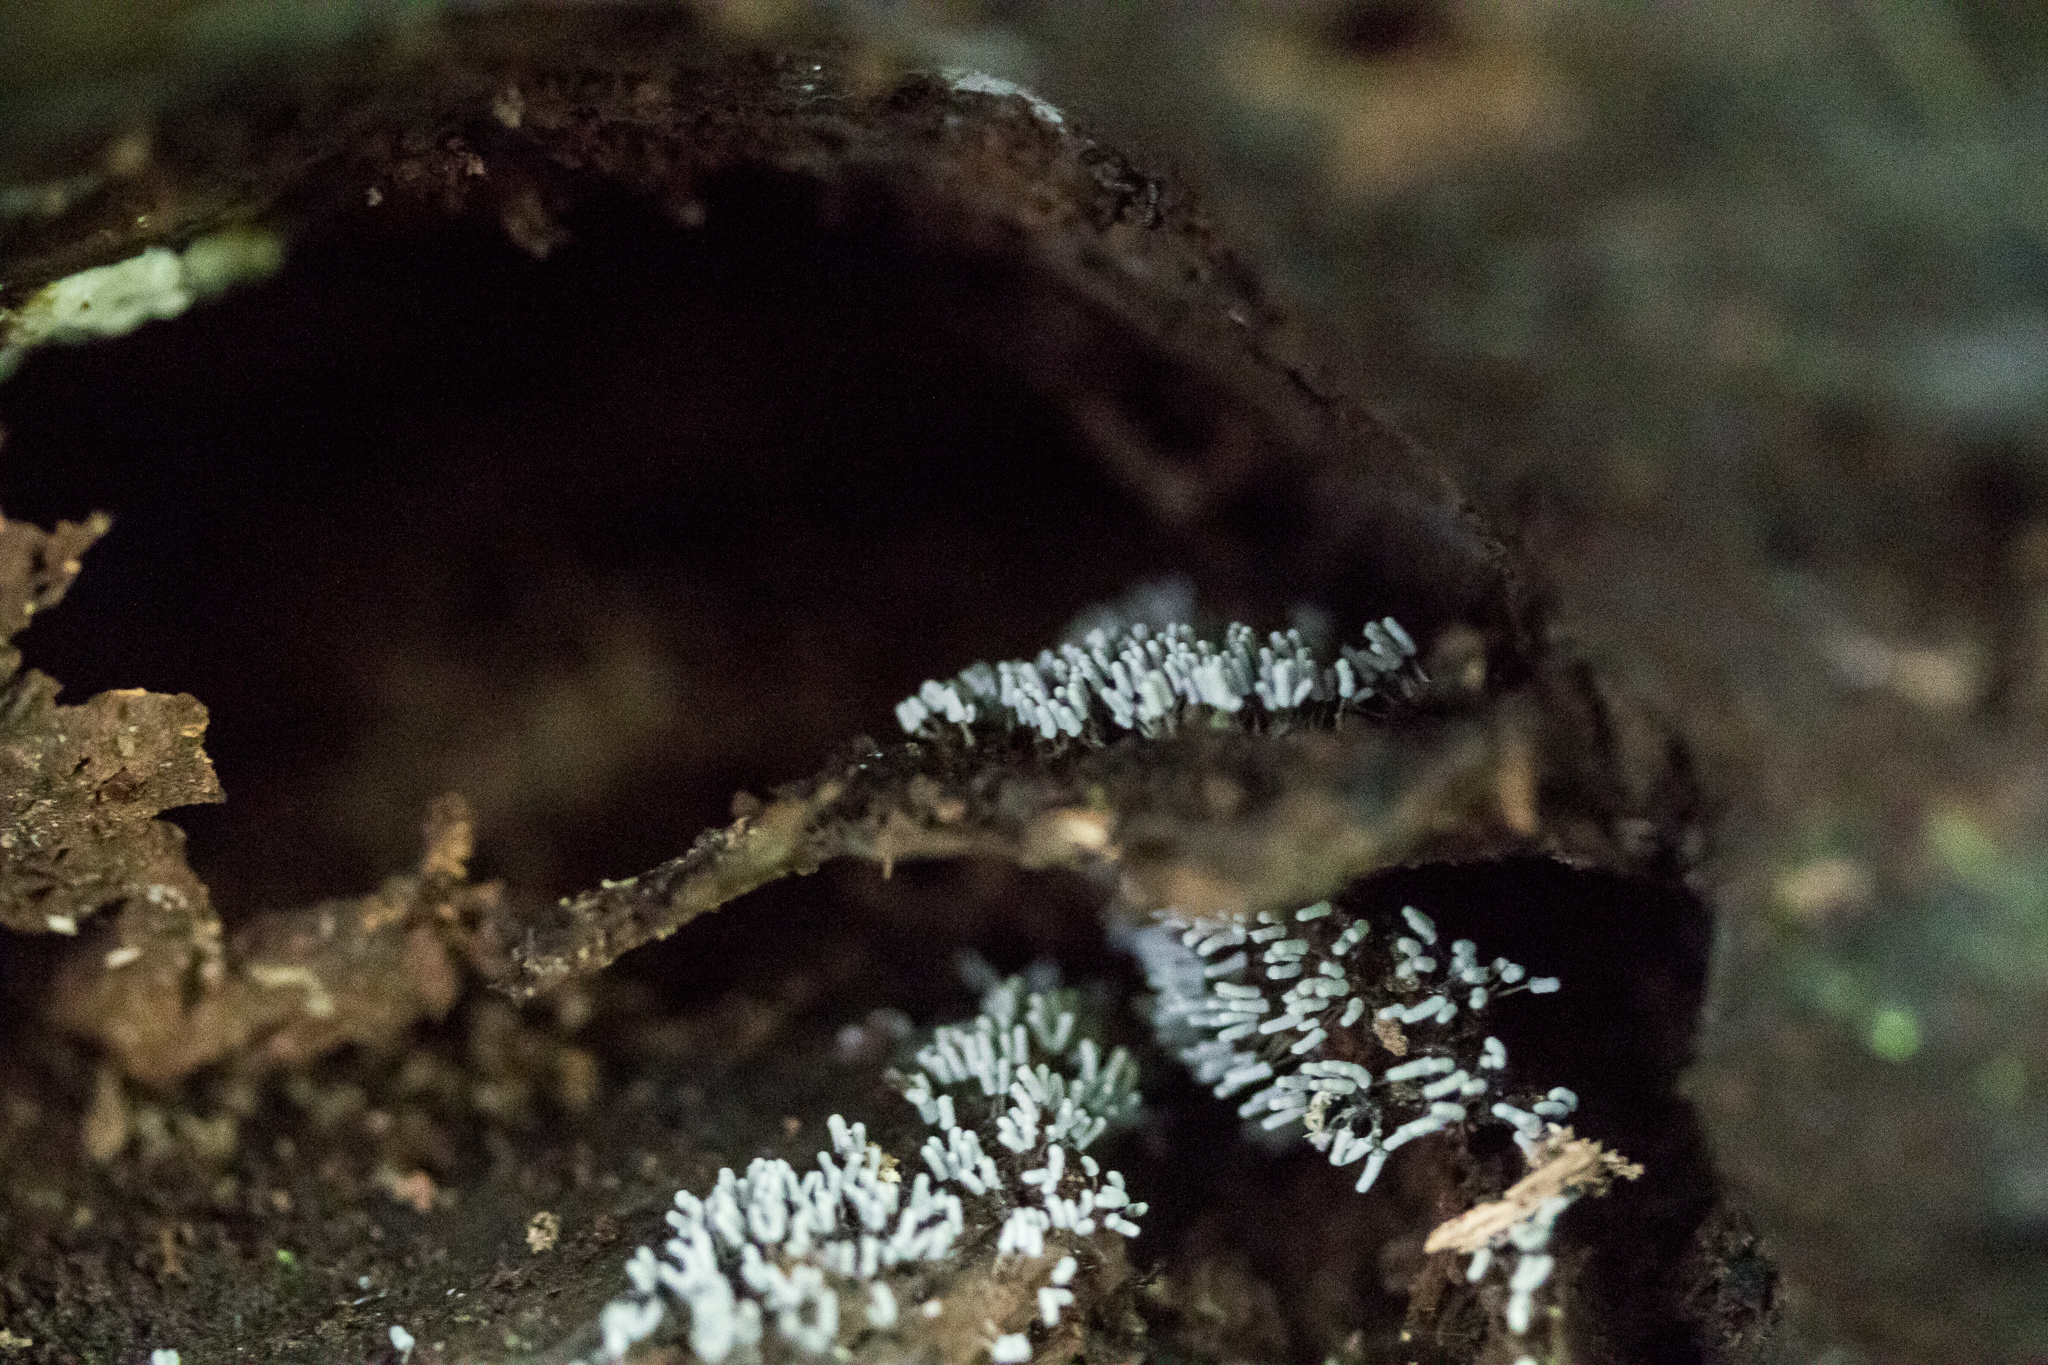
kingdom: Protozoa
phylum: Mycetozoa
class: Myxomycetes
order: Trichiales
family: Arcyriaceae
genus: Arcyria
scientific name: Arcyria cinerea
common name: White carnival candy slime mold
